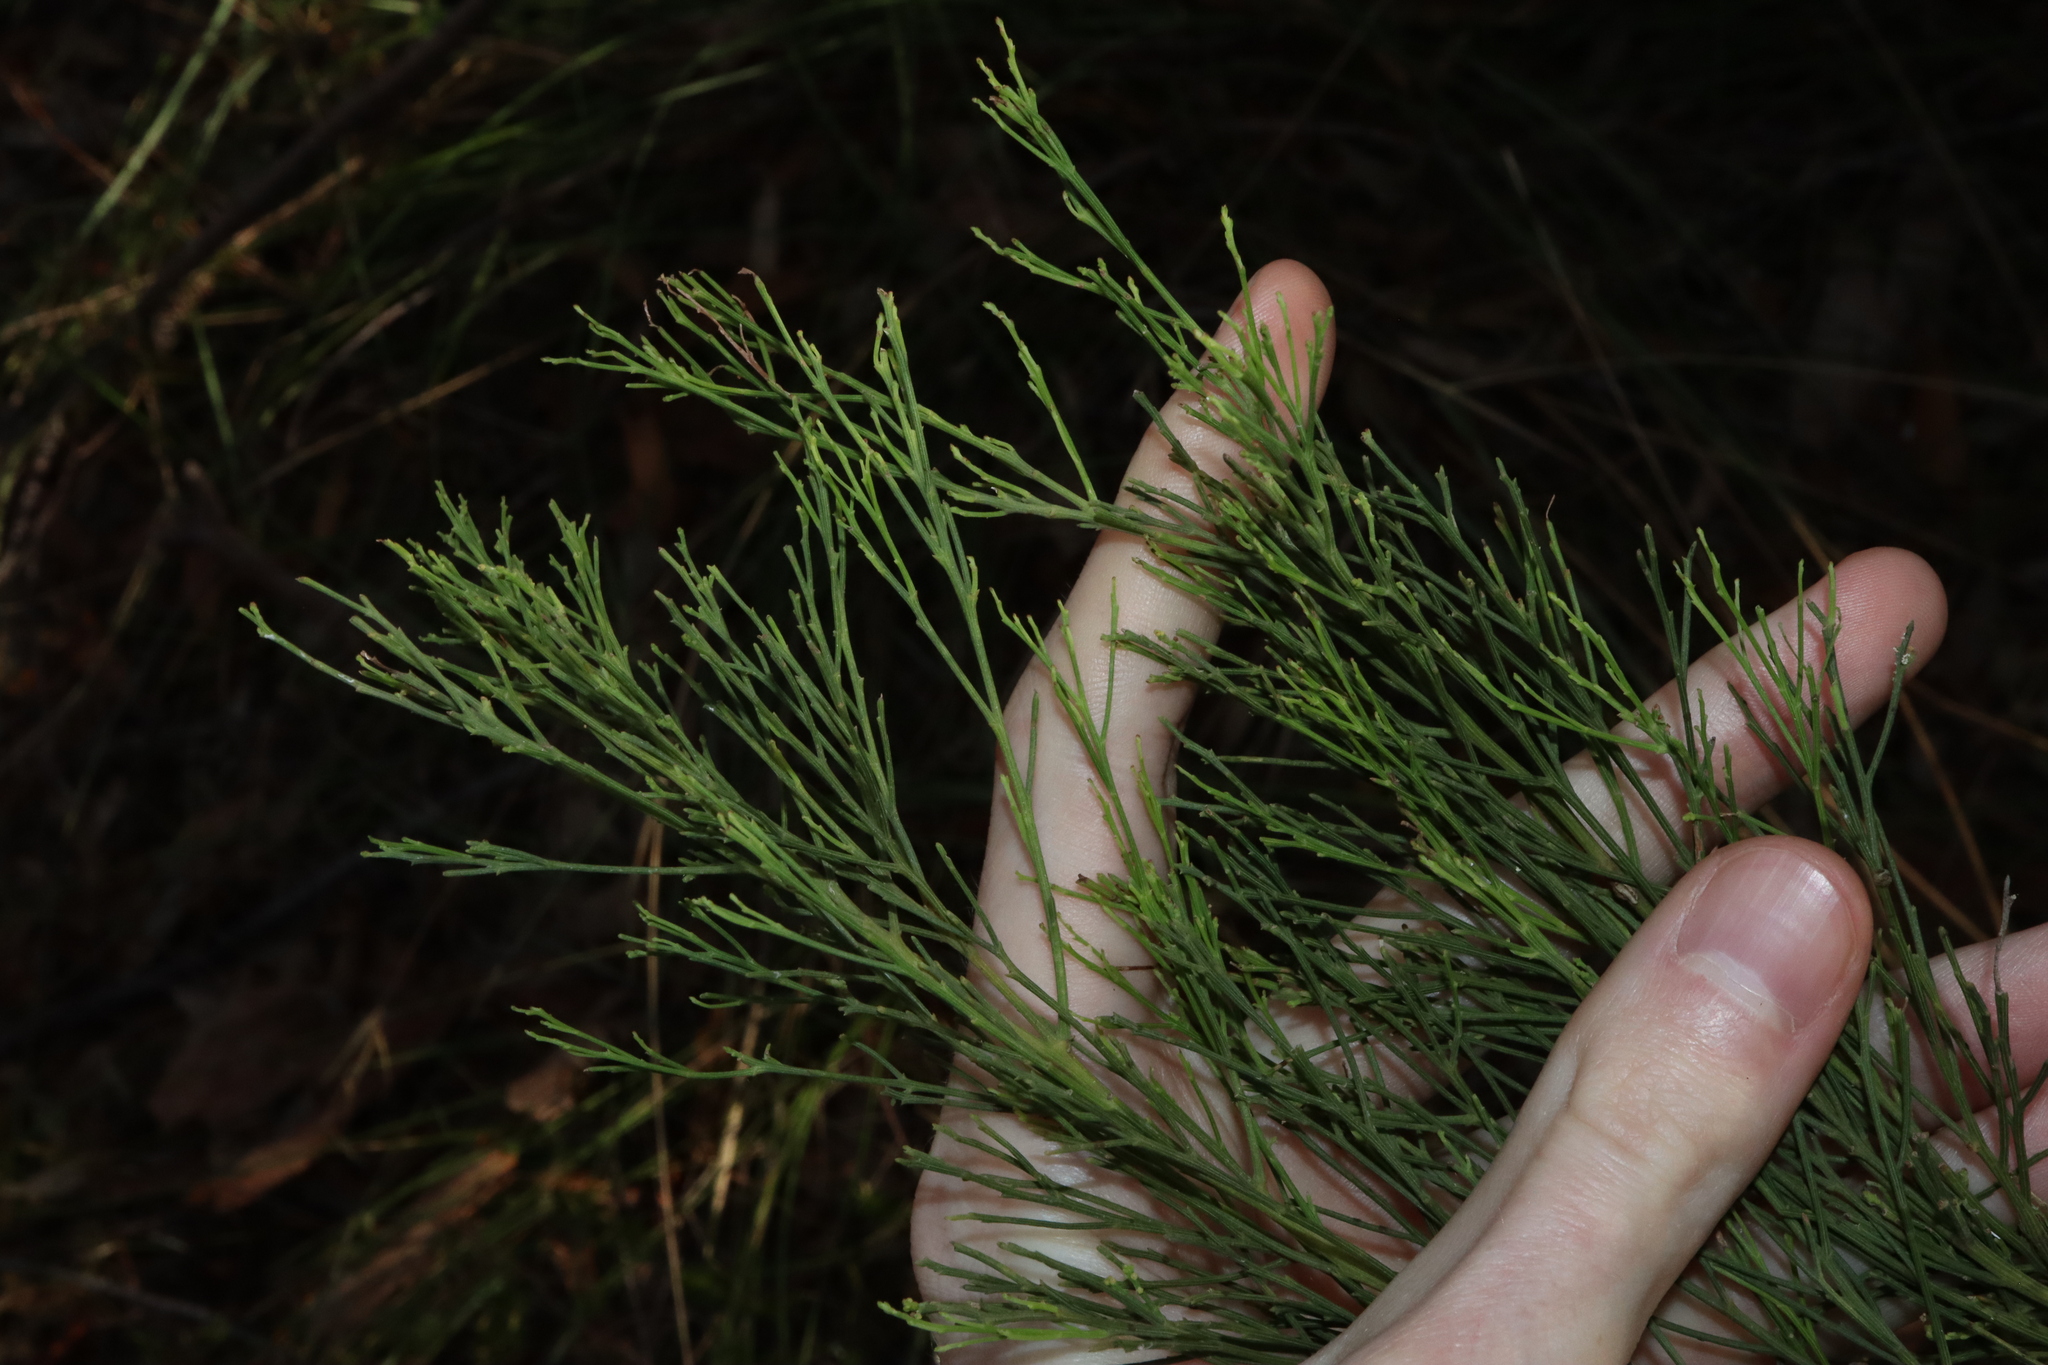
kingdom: Plantae
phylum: Tracheophyta
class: Magnoliopsida
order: Santalales
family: Santalaceae
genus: Exocarpos
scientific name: Exocarpos cupressiformis
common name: Cherry ballart
